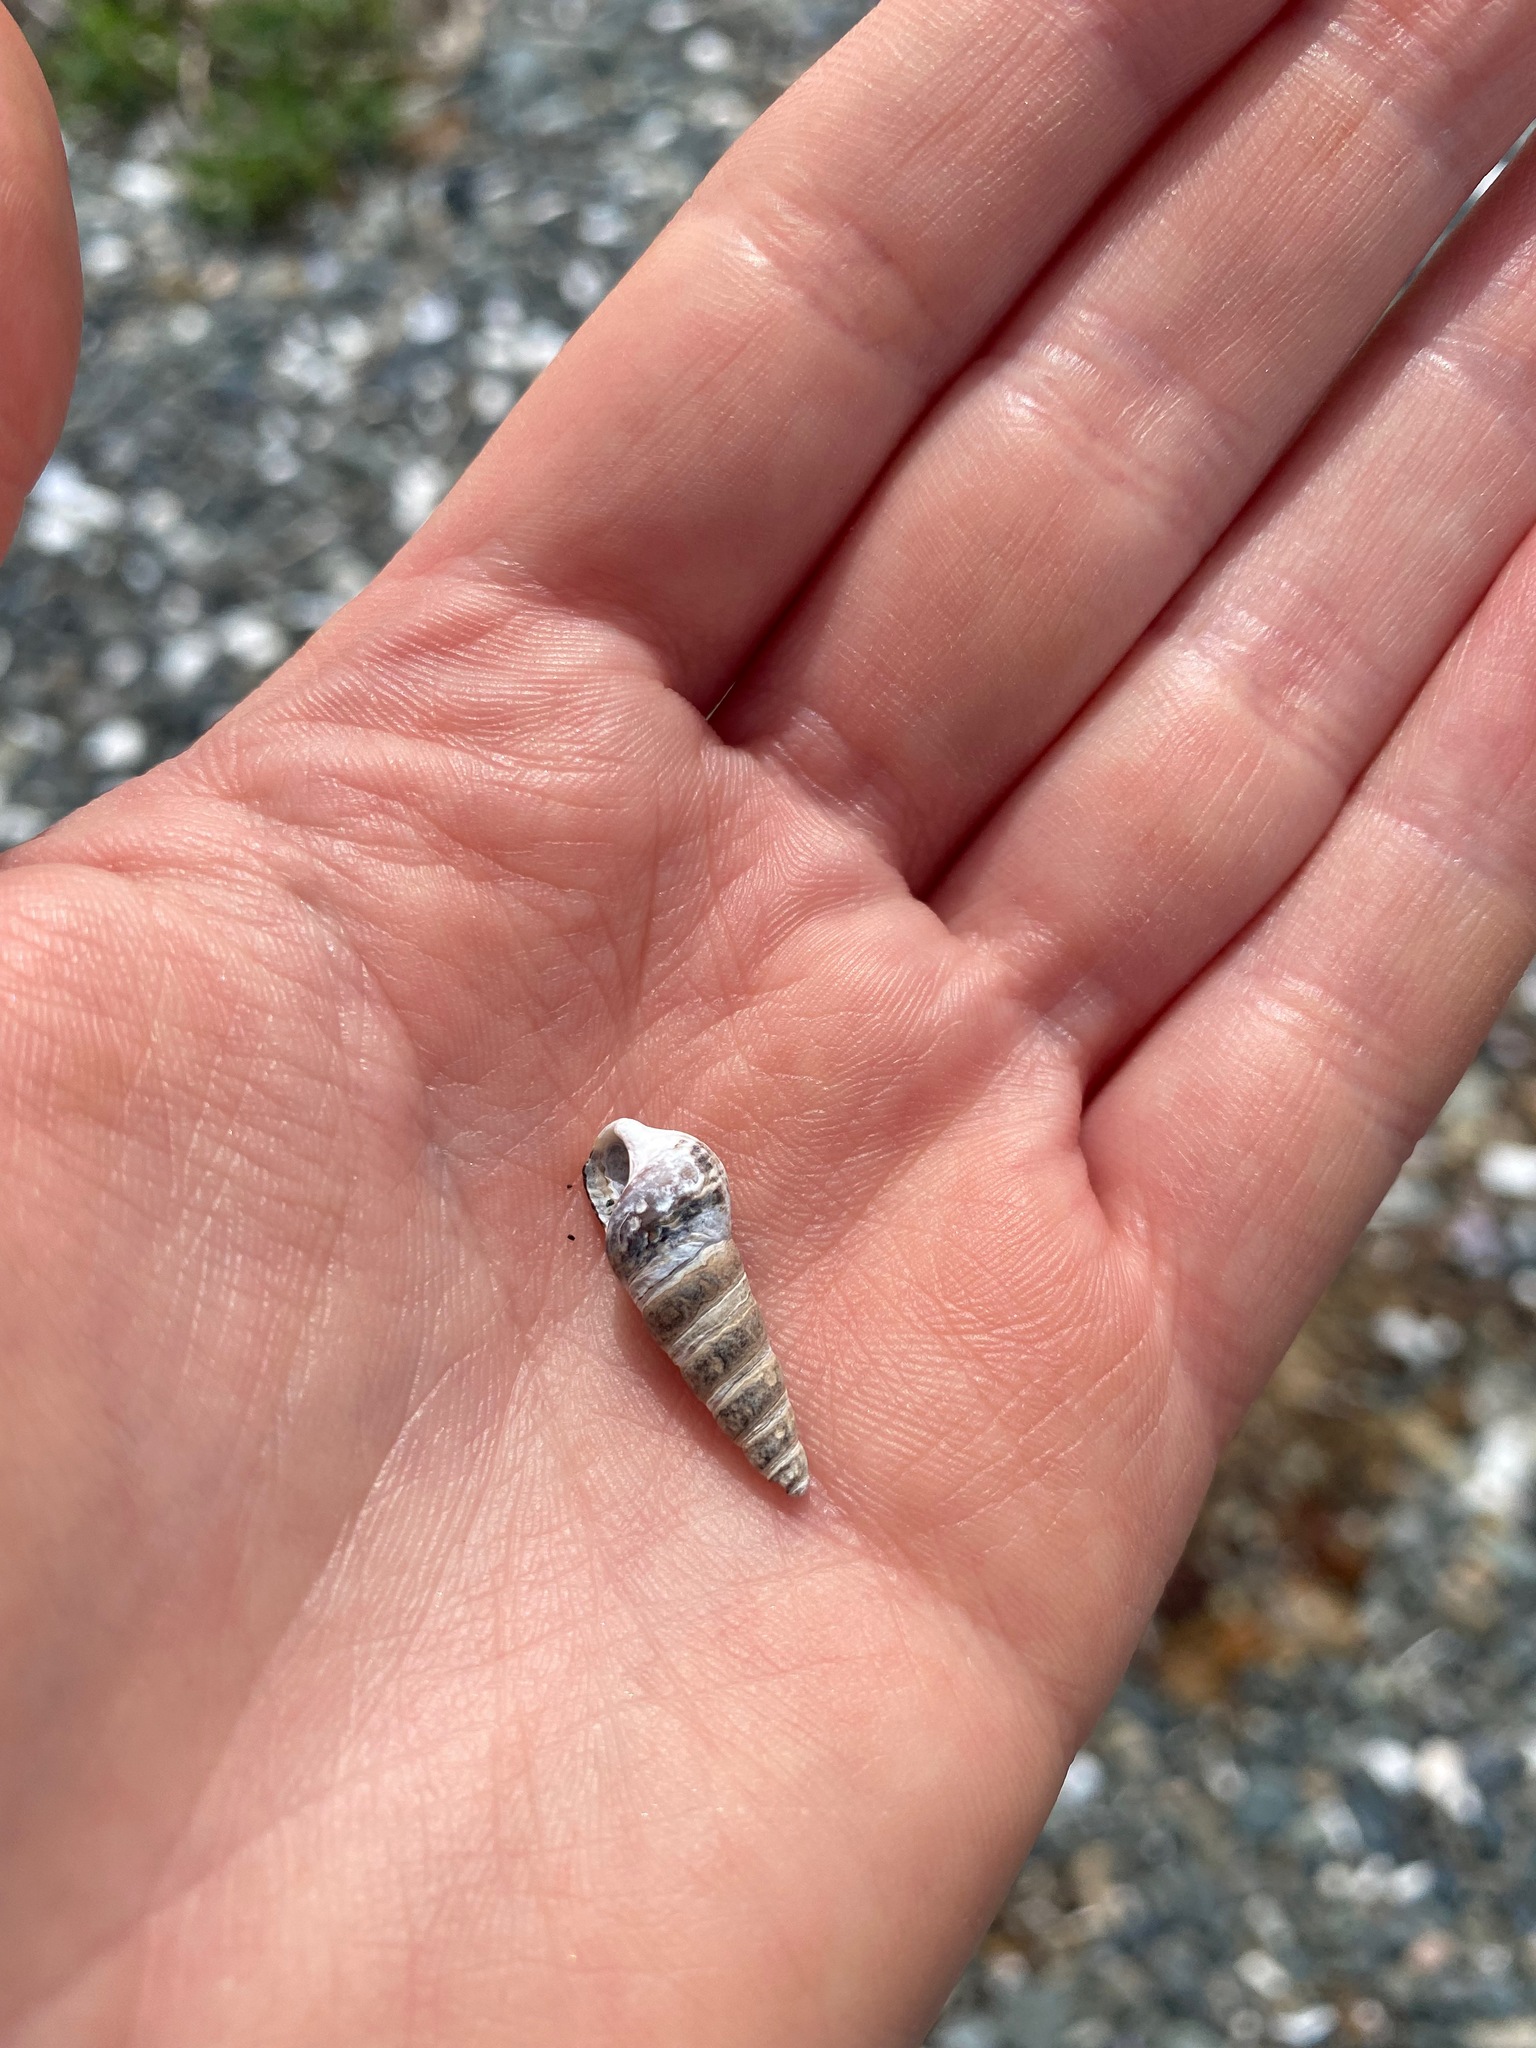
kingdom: Animalia
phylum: Mollusca
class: Gastropoda
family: Batillariidae
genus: Batillaria
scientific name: Batillaria attramentaria
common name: Japanese false cerith
